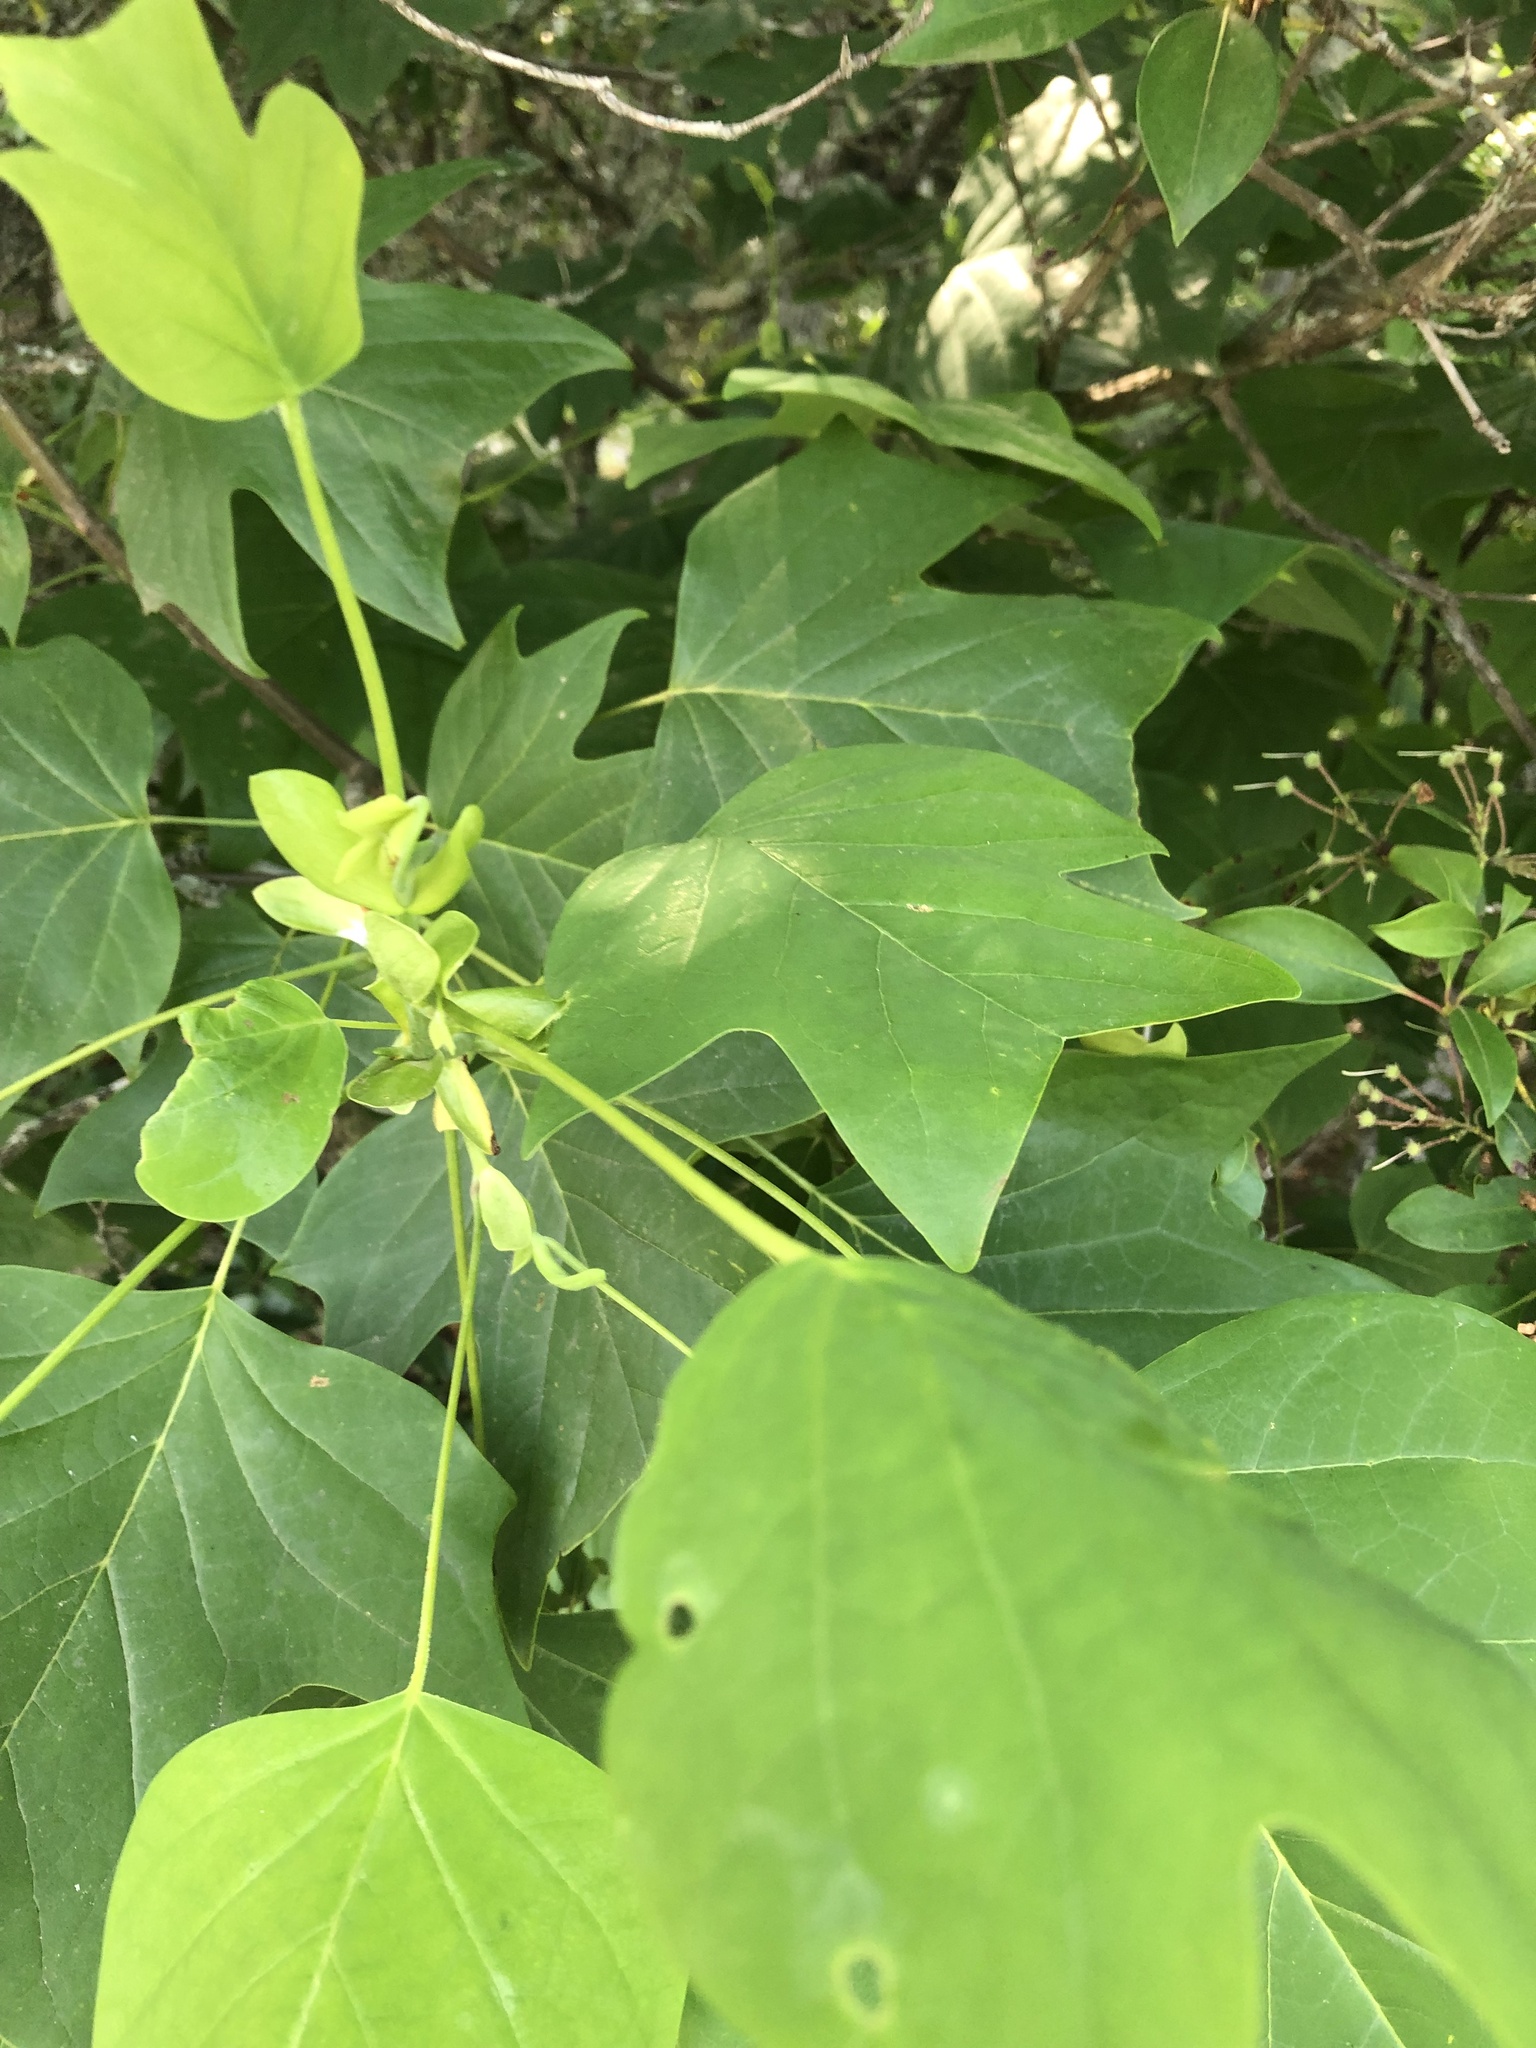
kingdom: Plantae
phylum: Tracheophyta
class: Magnoliopsida
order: Magnoliales
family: Magnoliaceae
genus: Liriodendron
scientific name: Liriodendron tulipifera
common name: Tulip tree
